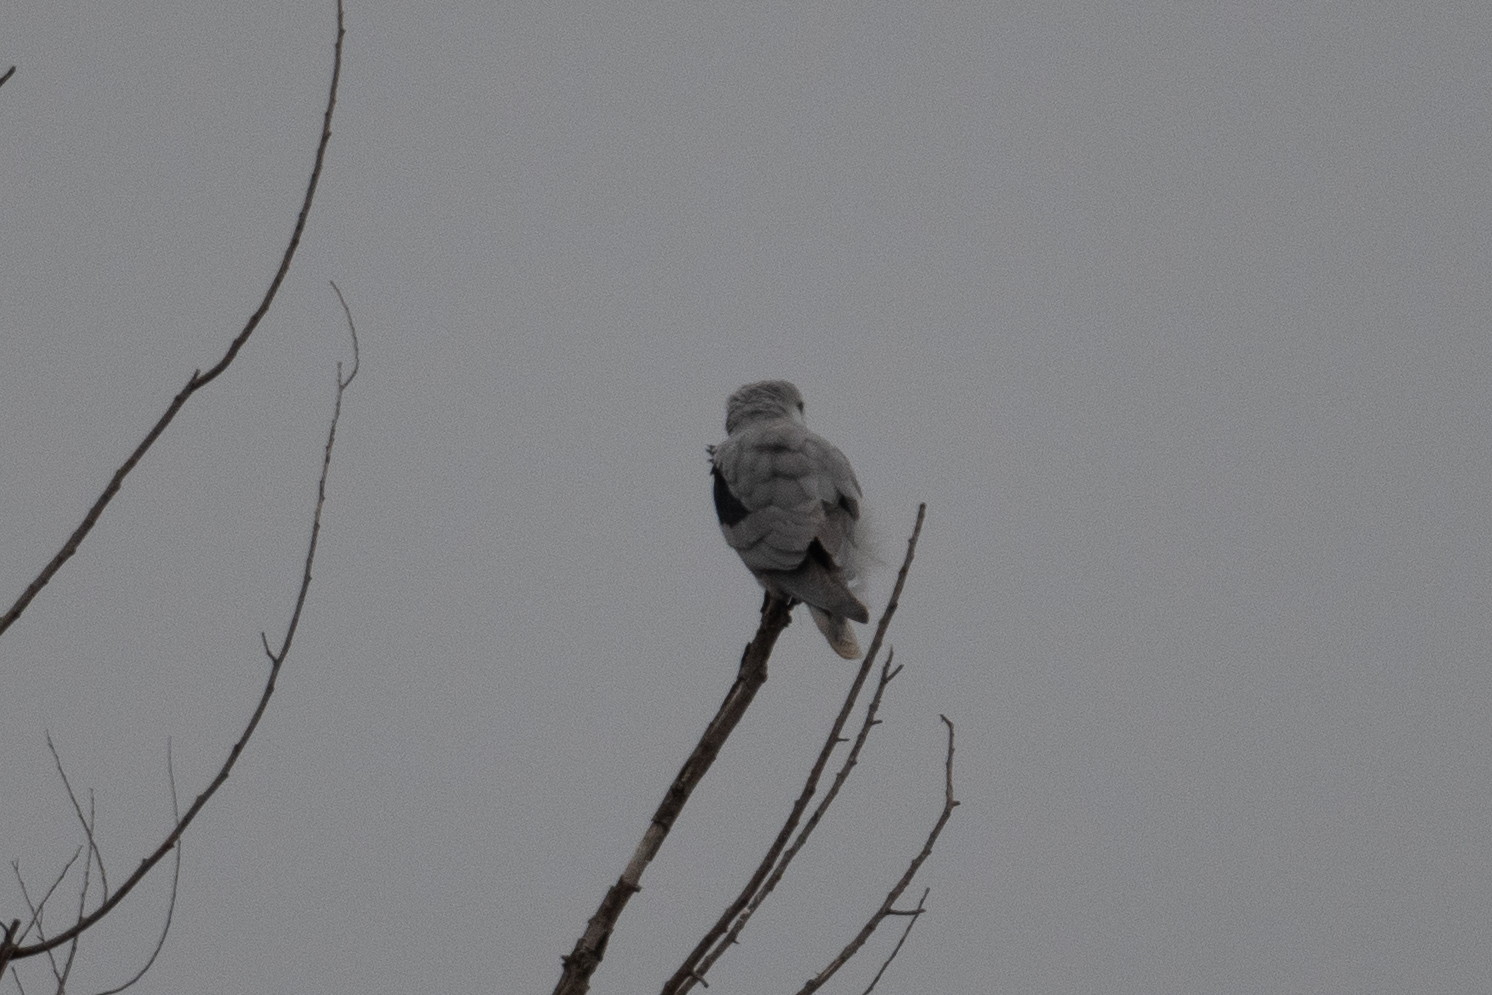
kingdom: Animalia
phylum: Chordata
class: Aves
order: Accipitriformes
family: Accipitridae
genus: Elanus
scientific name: Elanus leucurus
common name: White-tailed kite
